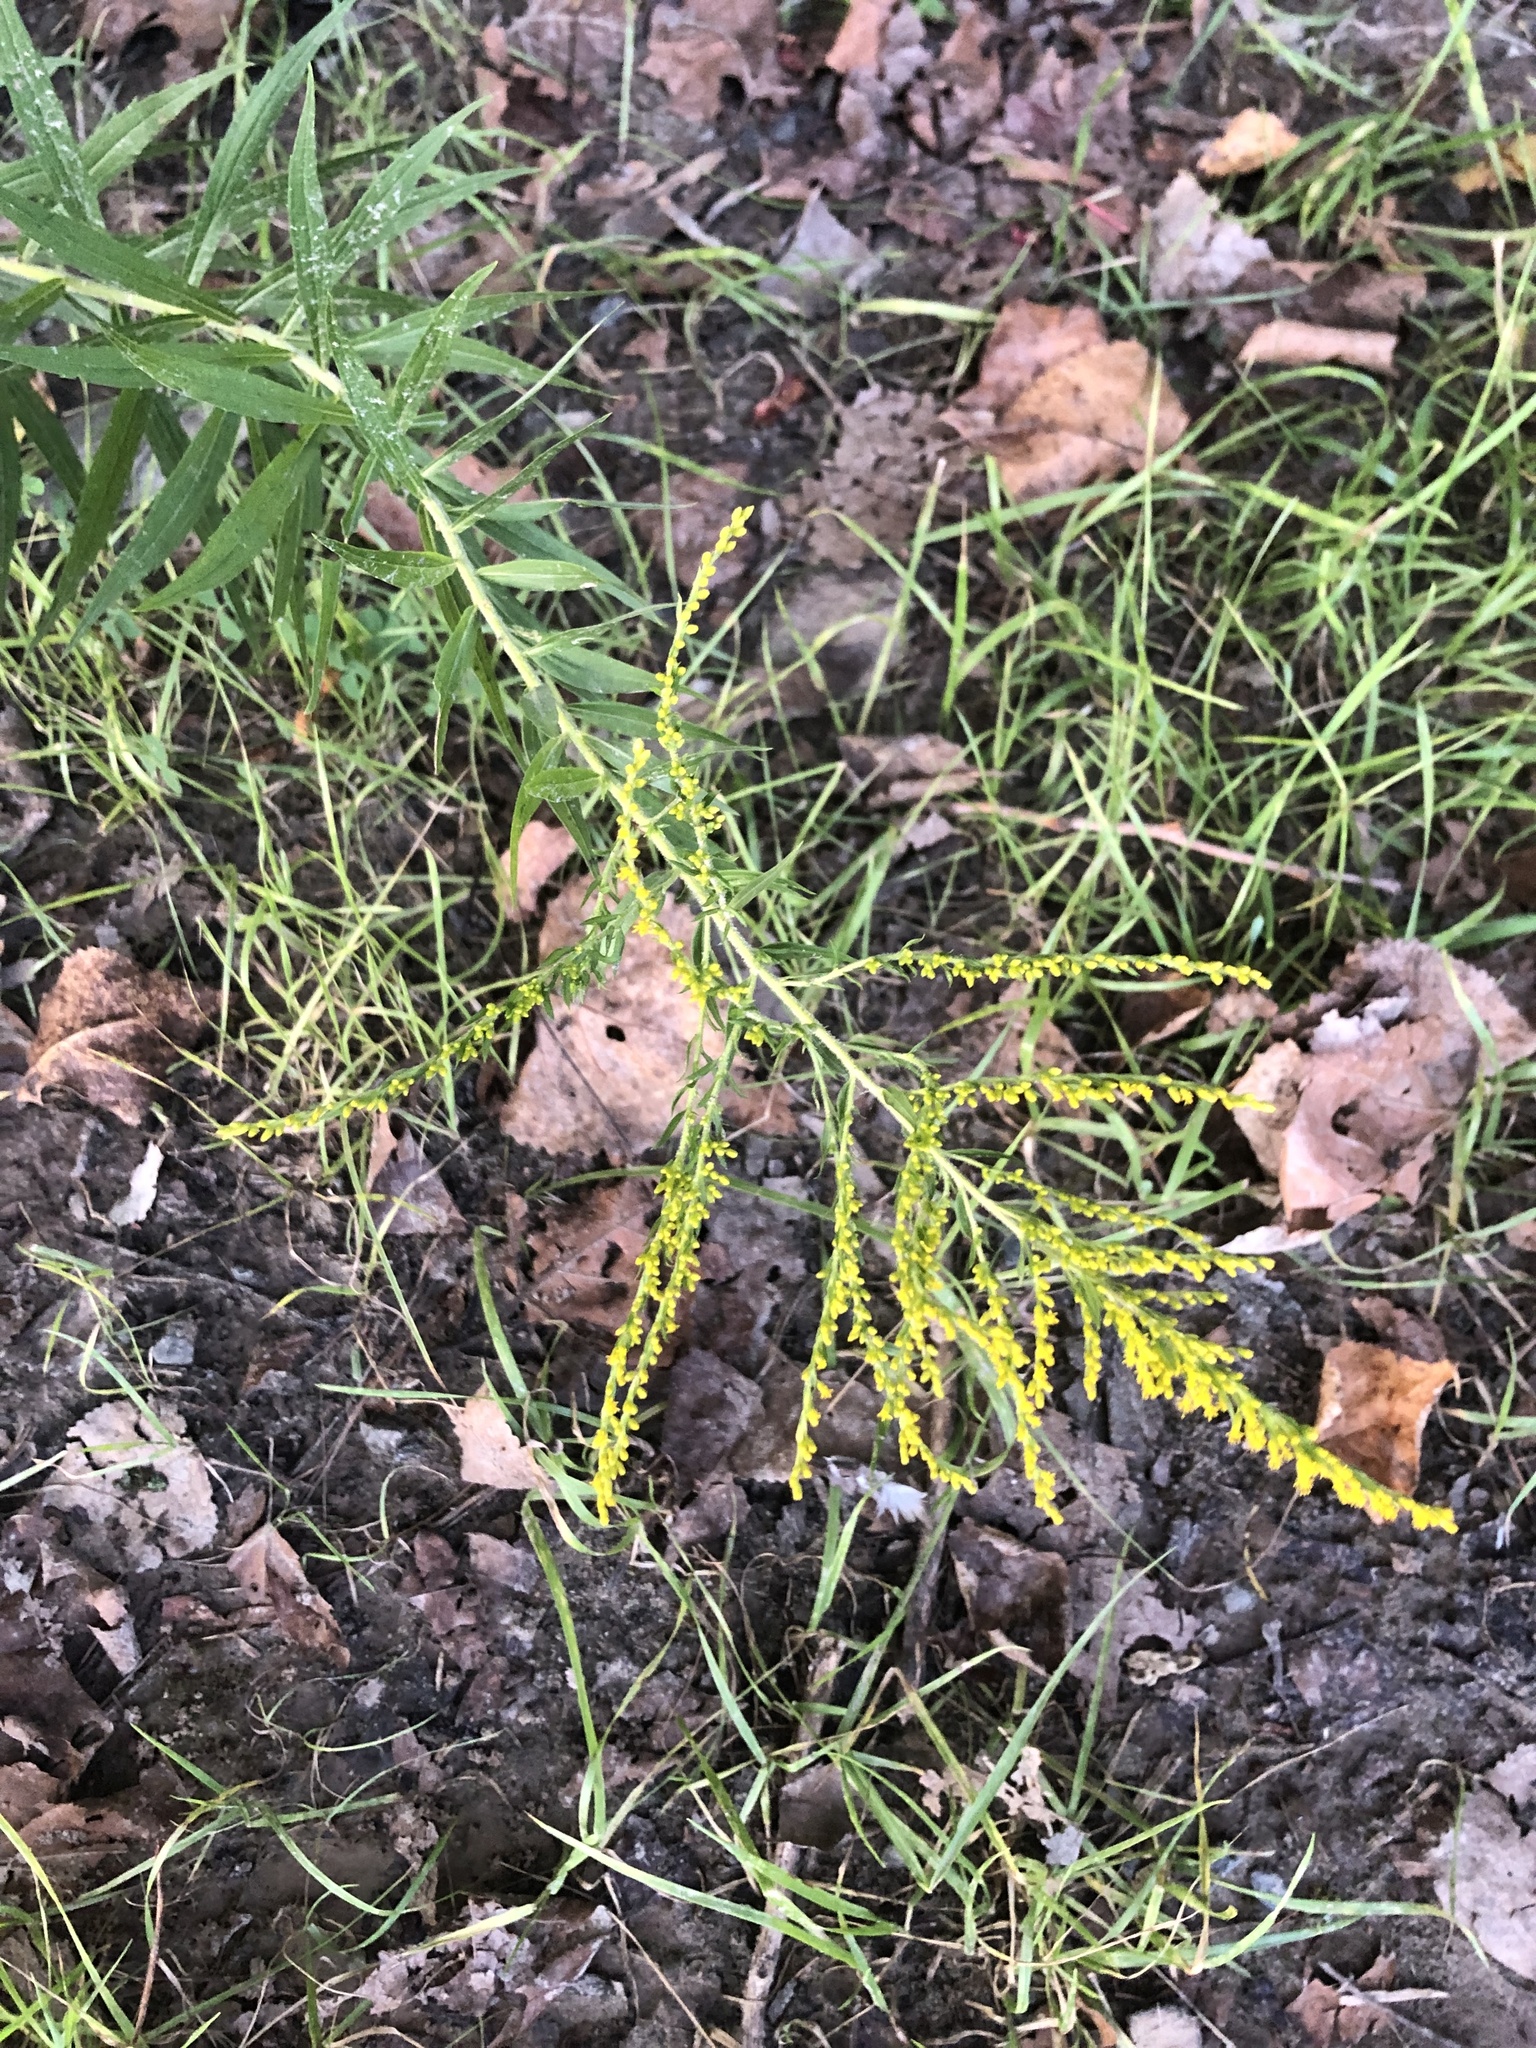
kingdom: Plantae
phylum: Tracheophyta
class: Magnoliopsida
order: Asterales
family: Asteraceae
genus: Solidago
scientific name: Solidago canadensis
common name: Canada goldenrod
